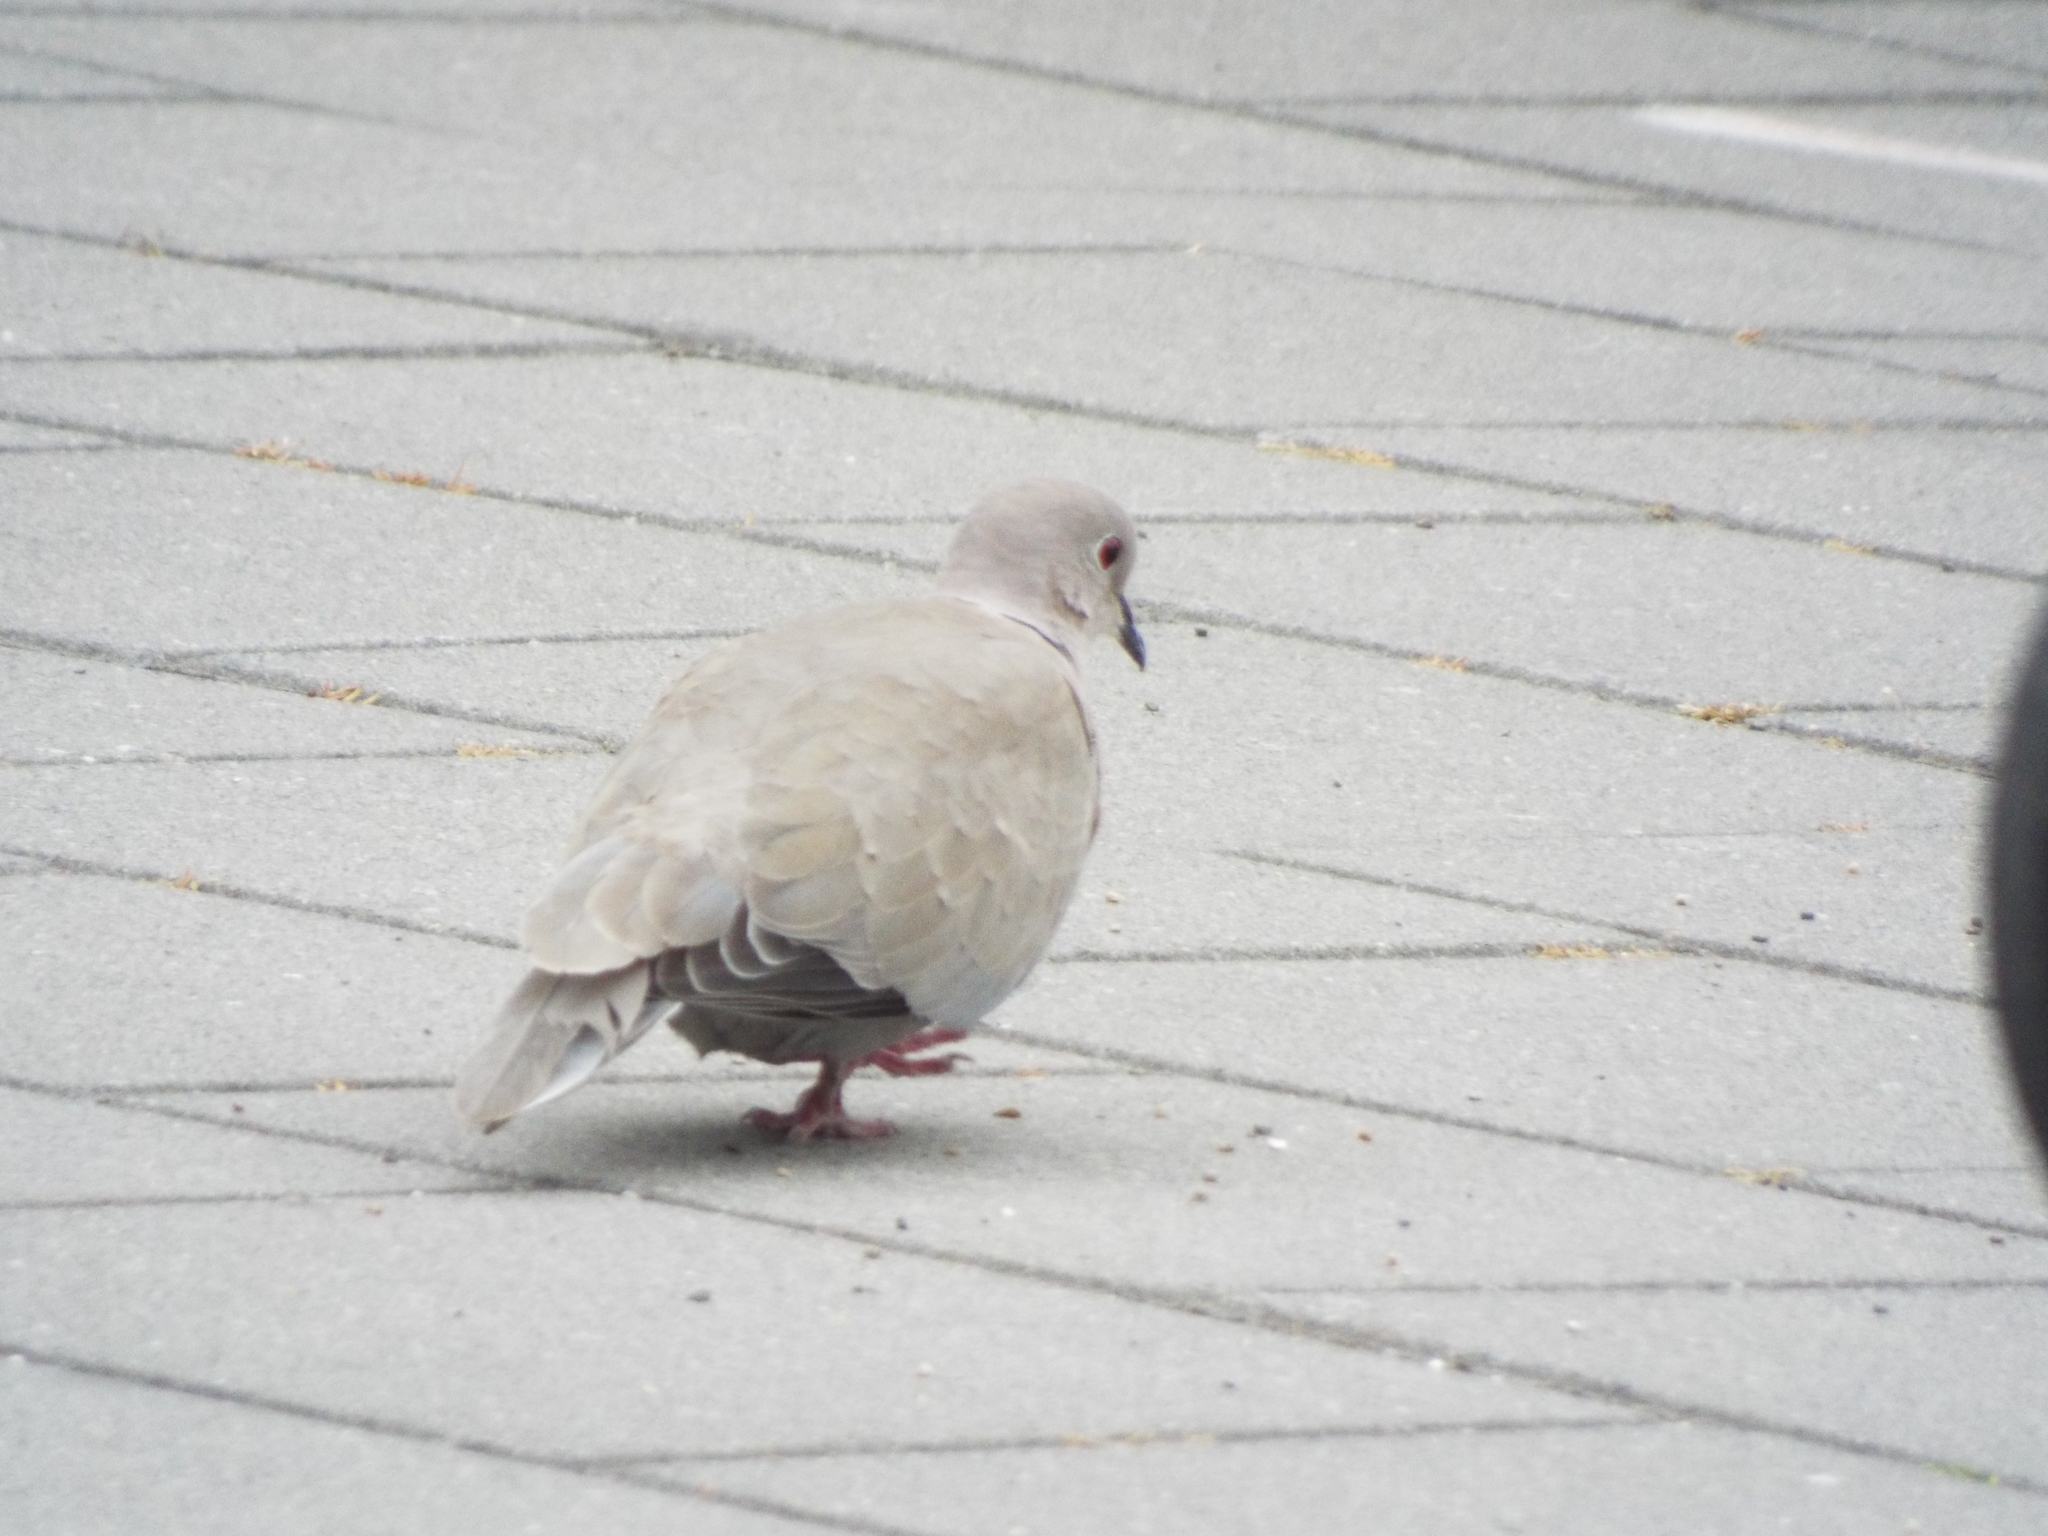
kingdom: Animalia
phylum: Chordata
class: Aves
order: Columbiformes
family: Columbidae
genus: Streptopelia
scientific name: Streptopelia decaocto
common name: Eurasian collared dove
